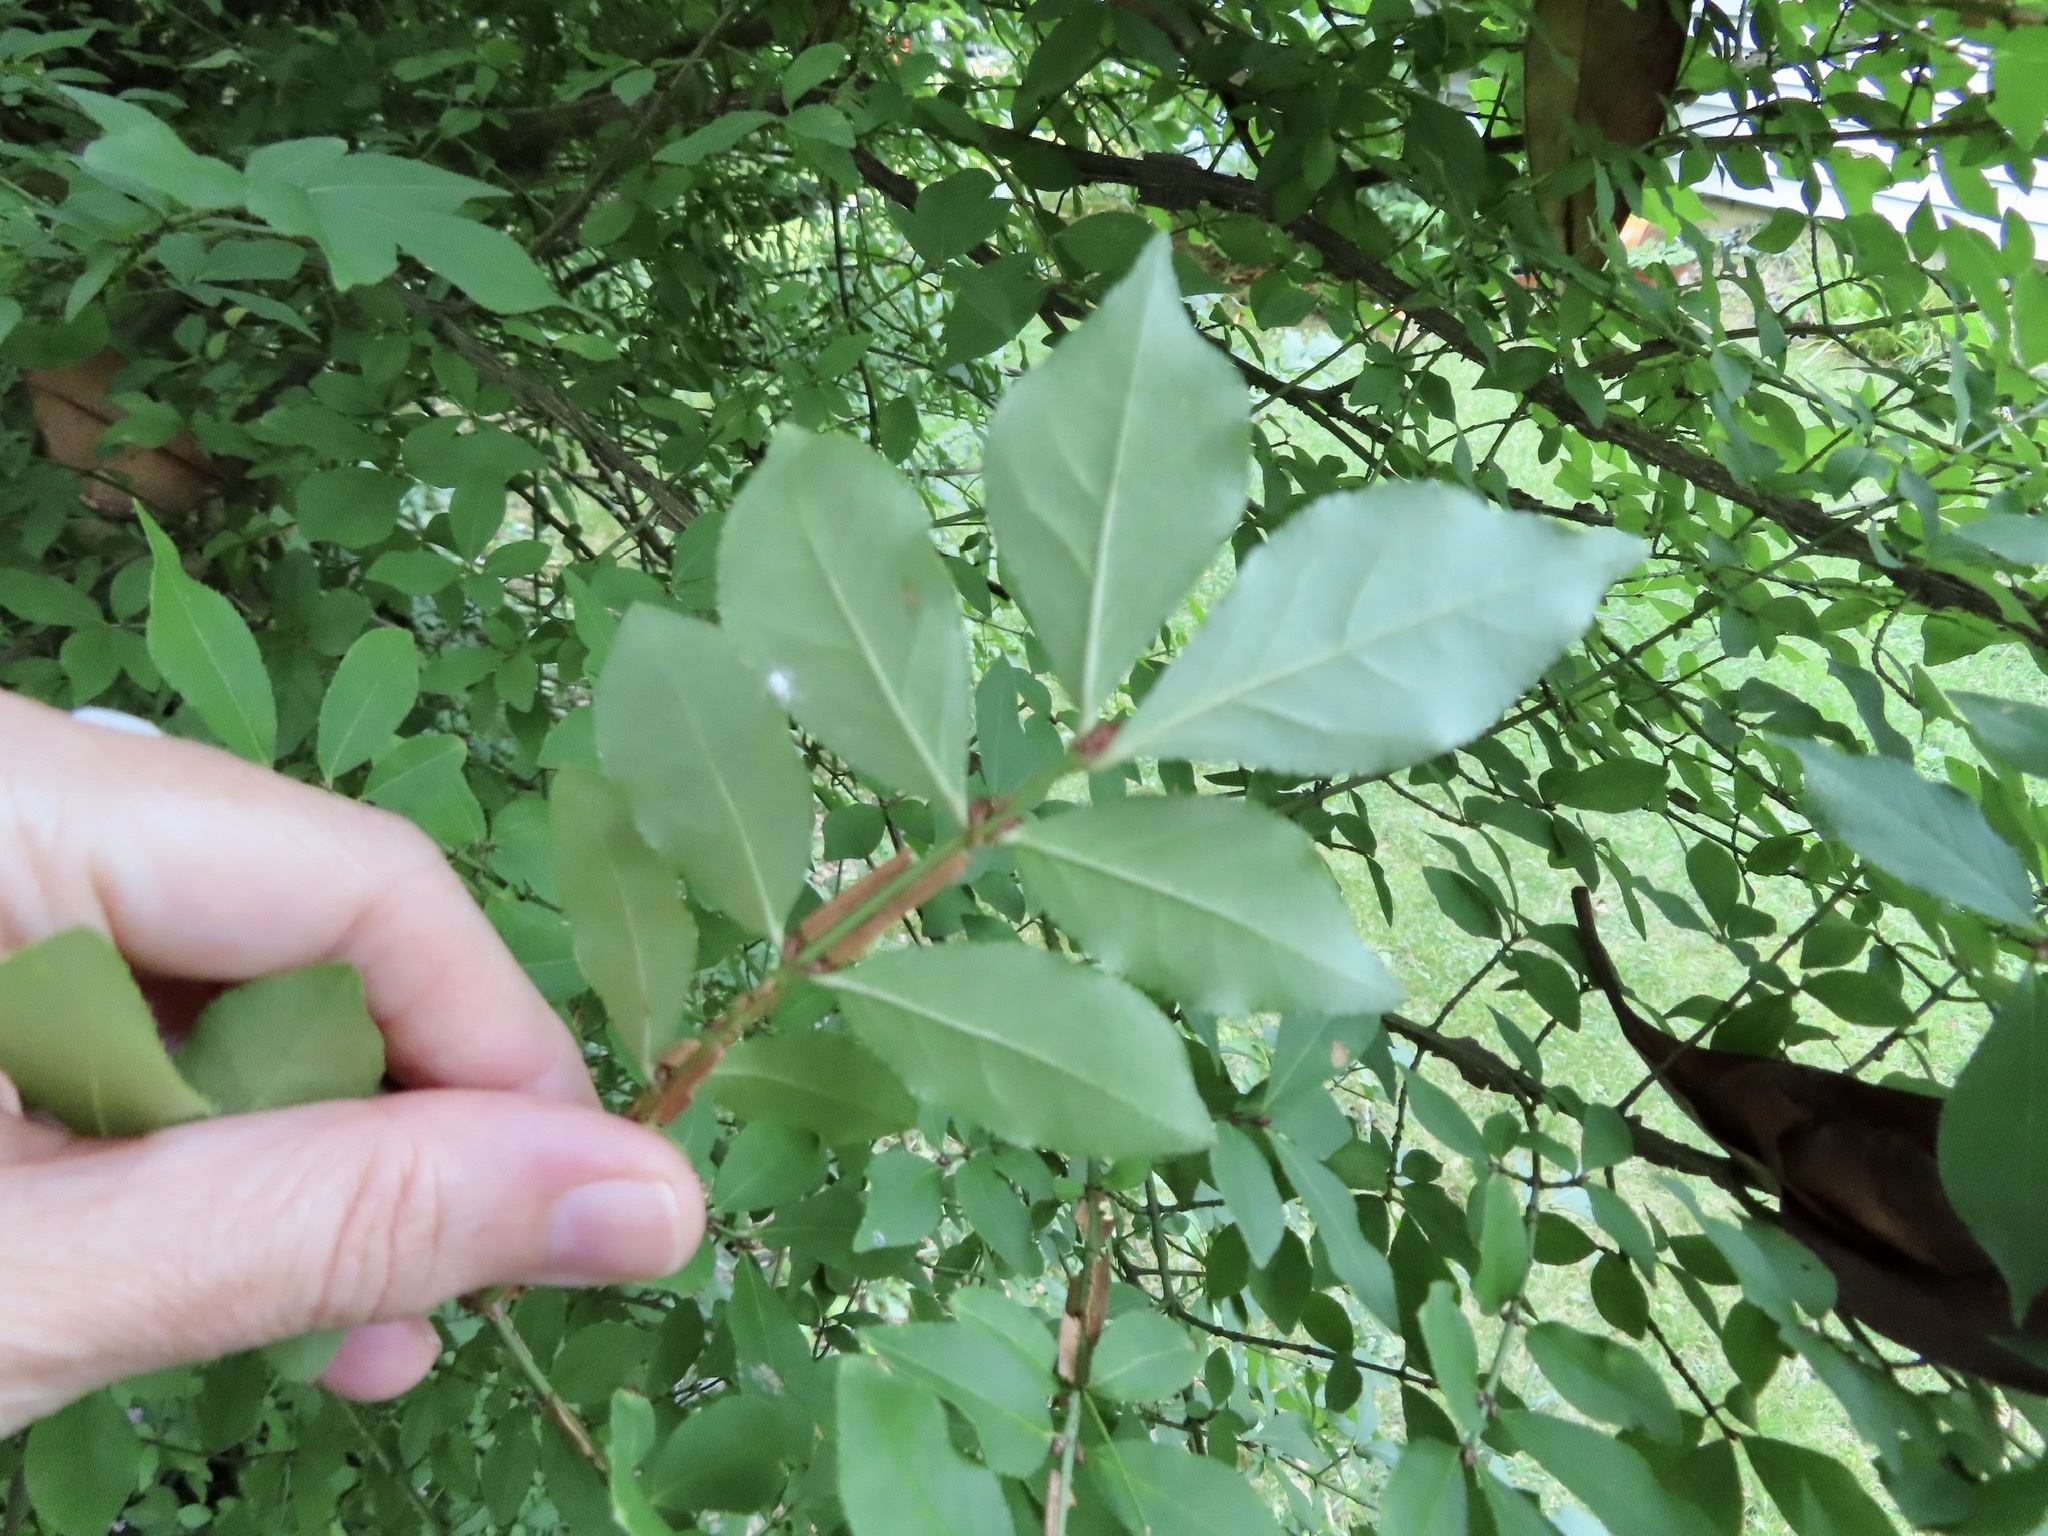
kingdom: Plantae
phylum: Tracheophyta
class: Magnoliopsida
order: Celastrales
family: Celastraceae
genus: Euonymus
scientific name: Euonymus alatus
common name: Winged euonymus
